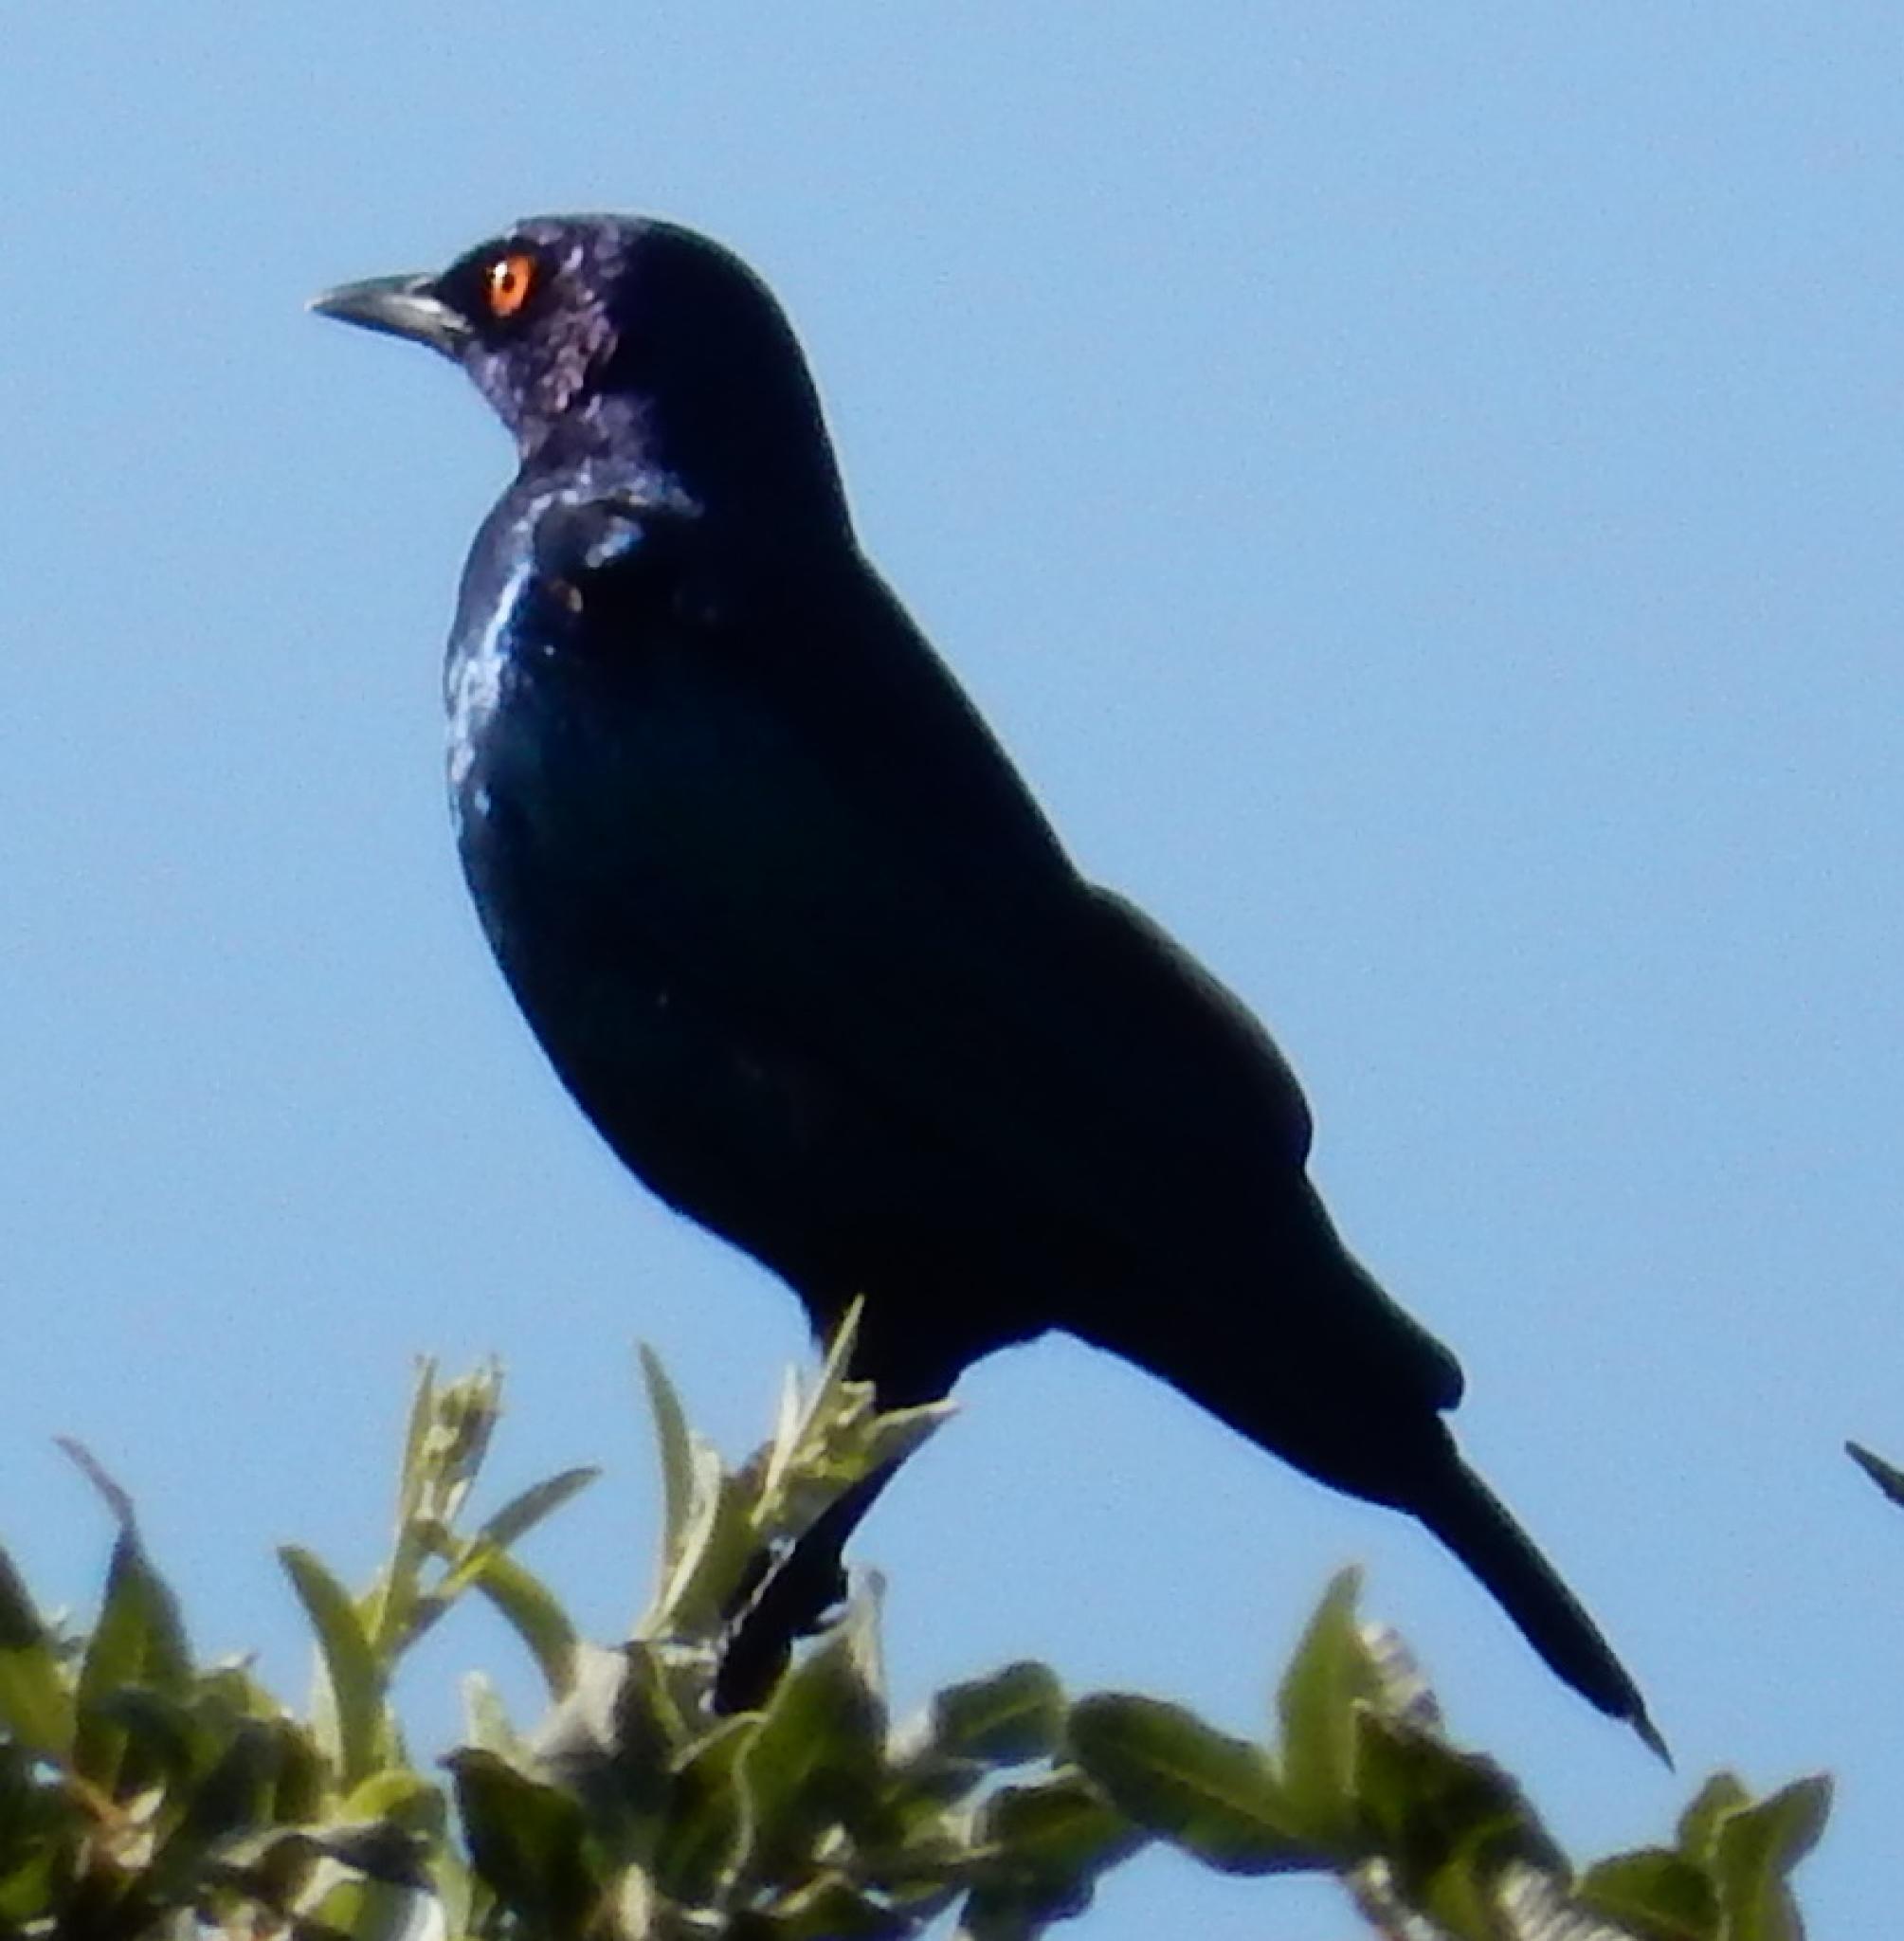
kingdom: Animalia
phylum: Chordata
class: Aves
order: Passeriformes
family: Sturnidae
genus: Lamprotornis
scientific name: Lamprotornis nitens
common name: Cape starling
